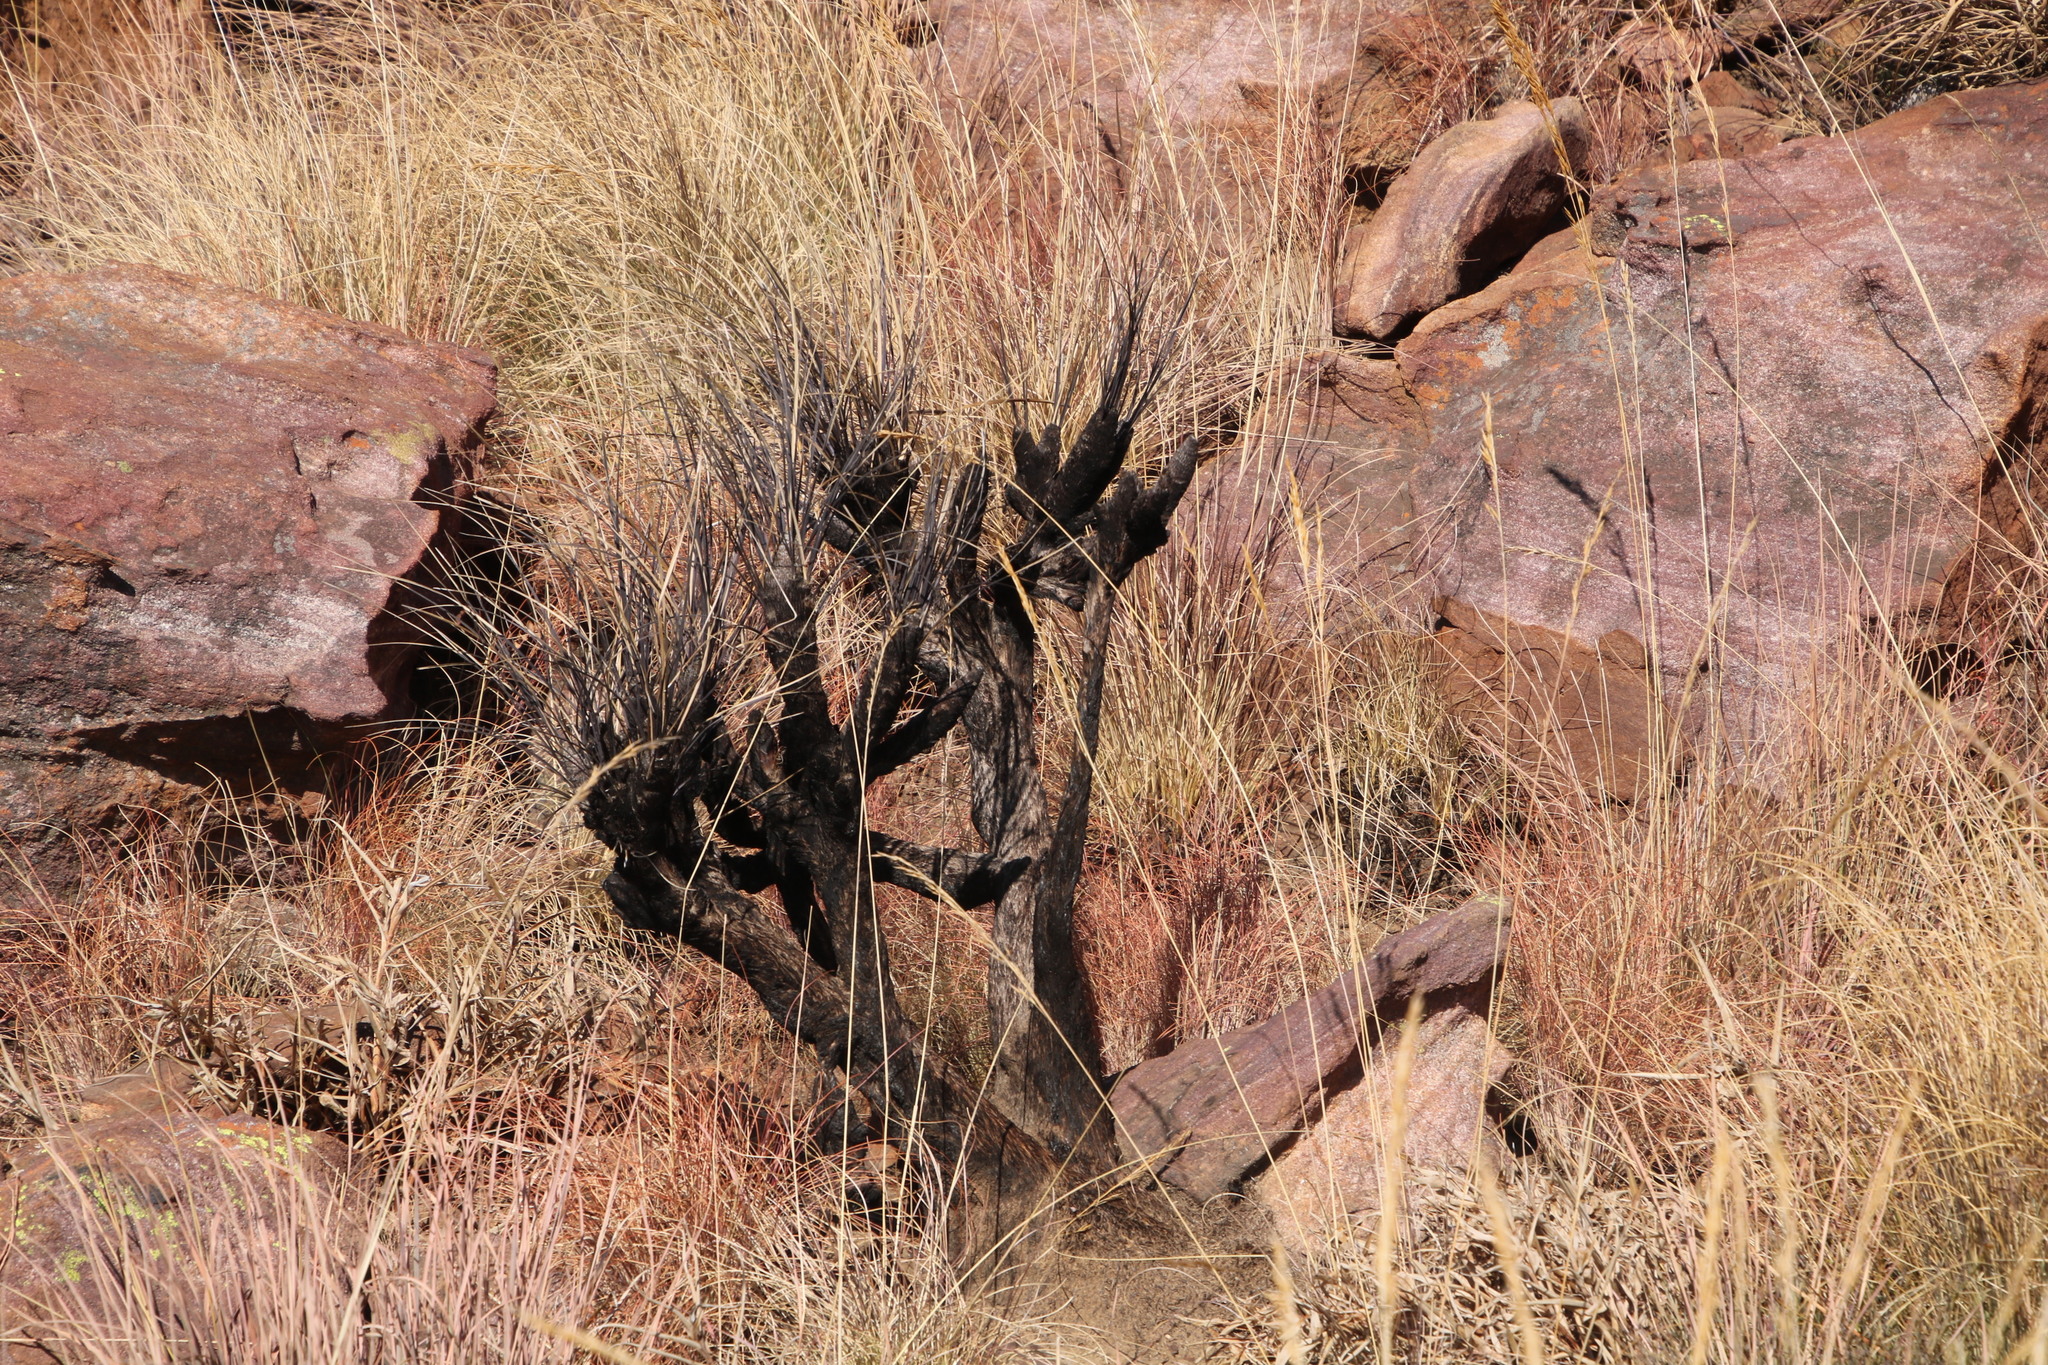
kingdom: Plantae
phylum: Tracheophyta
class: Liliopsida
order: Pandanales
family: Velloziaceae
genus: Xerophyta
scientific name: Xerophyta retinervis
